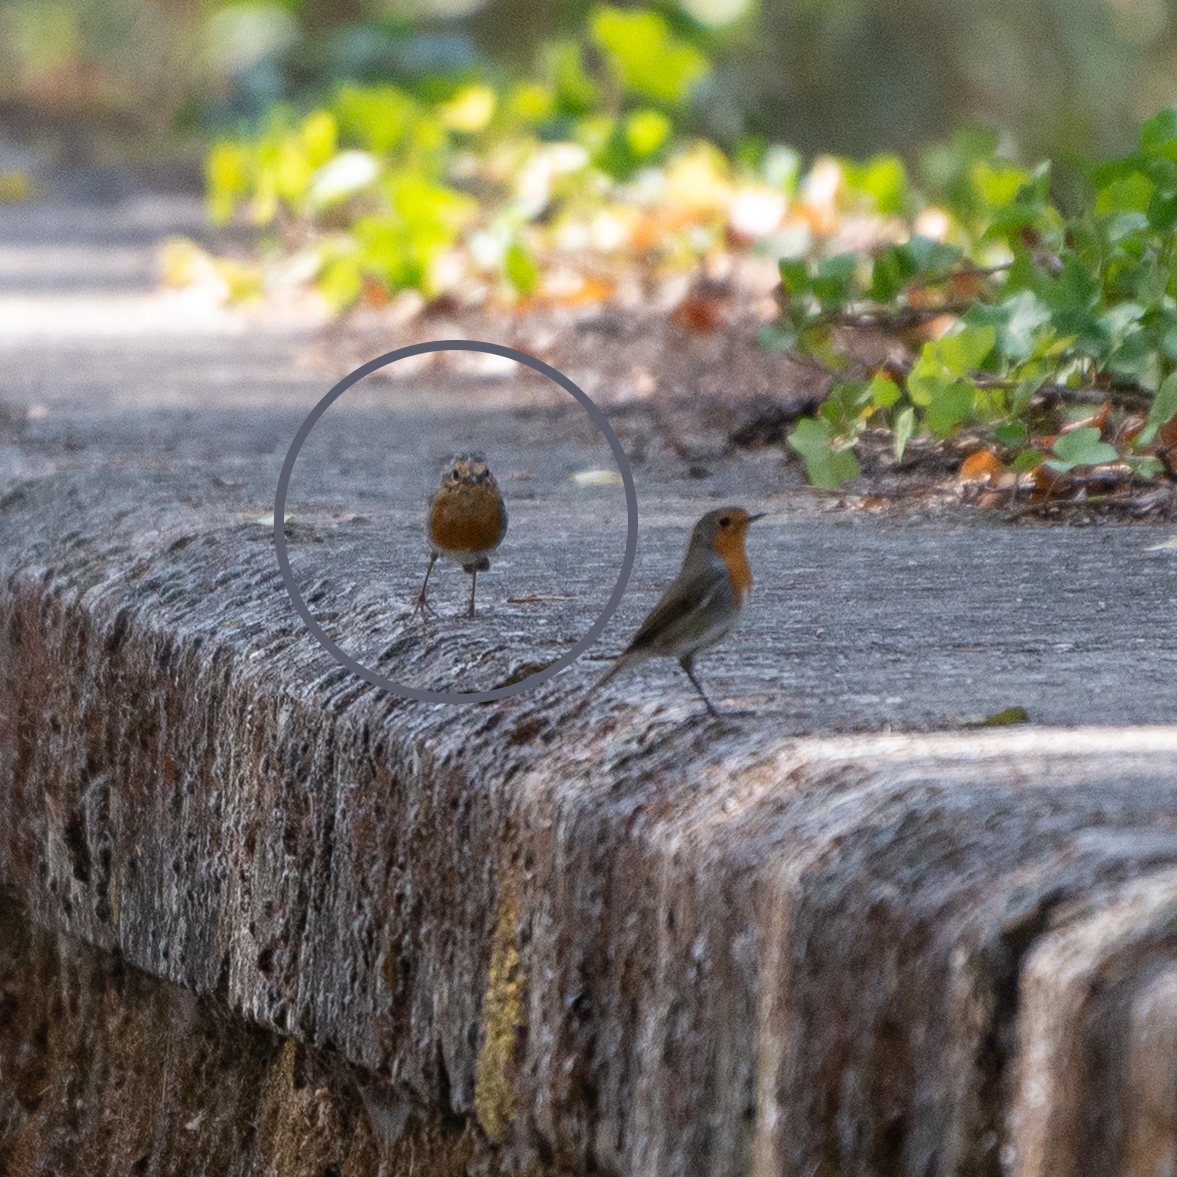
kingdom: Animalia
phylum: Chordata
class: Aves
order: Passeriformes
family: Muscicapidae
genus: Erithacus
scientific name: Erithacus rubecula
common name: European robin
